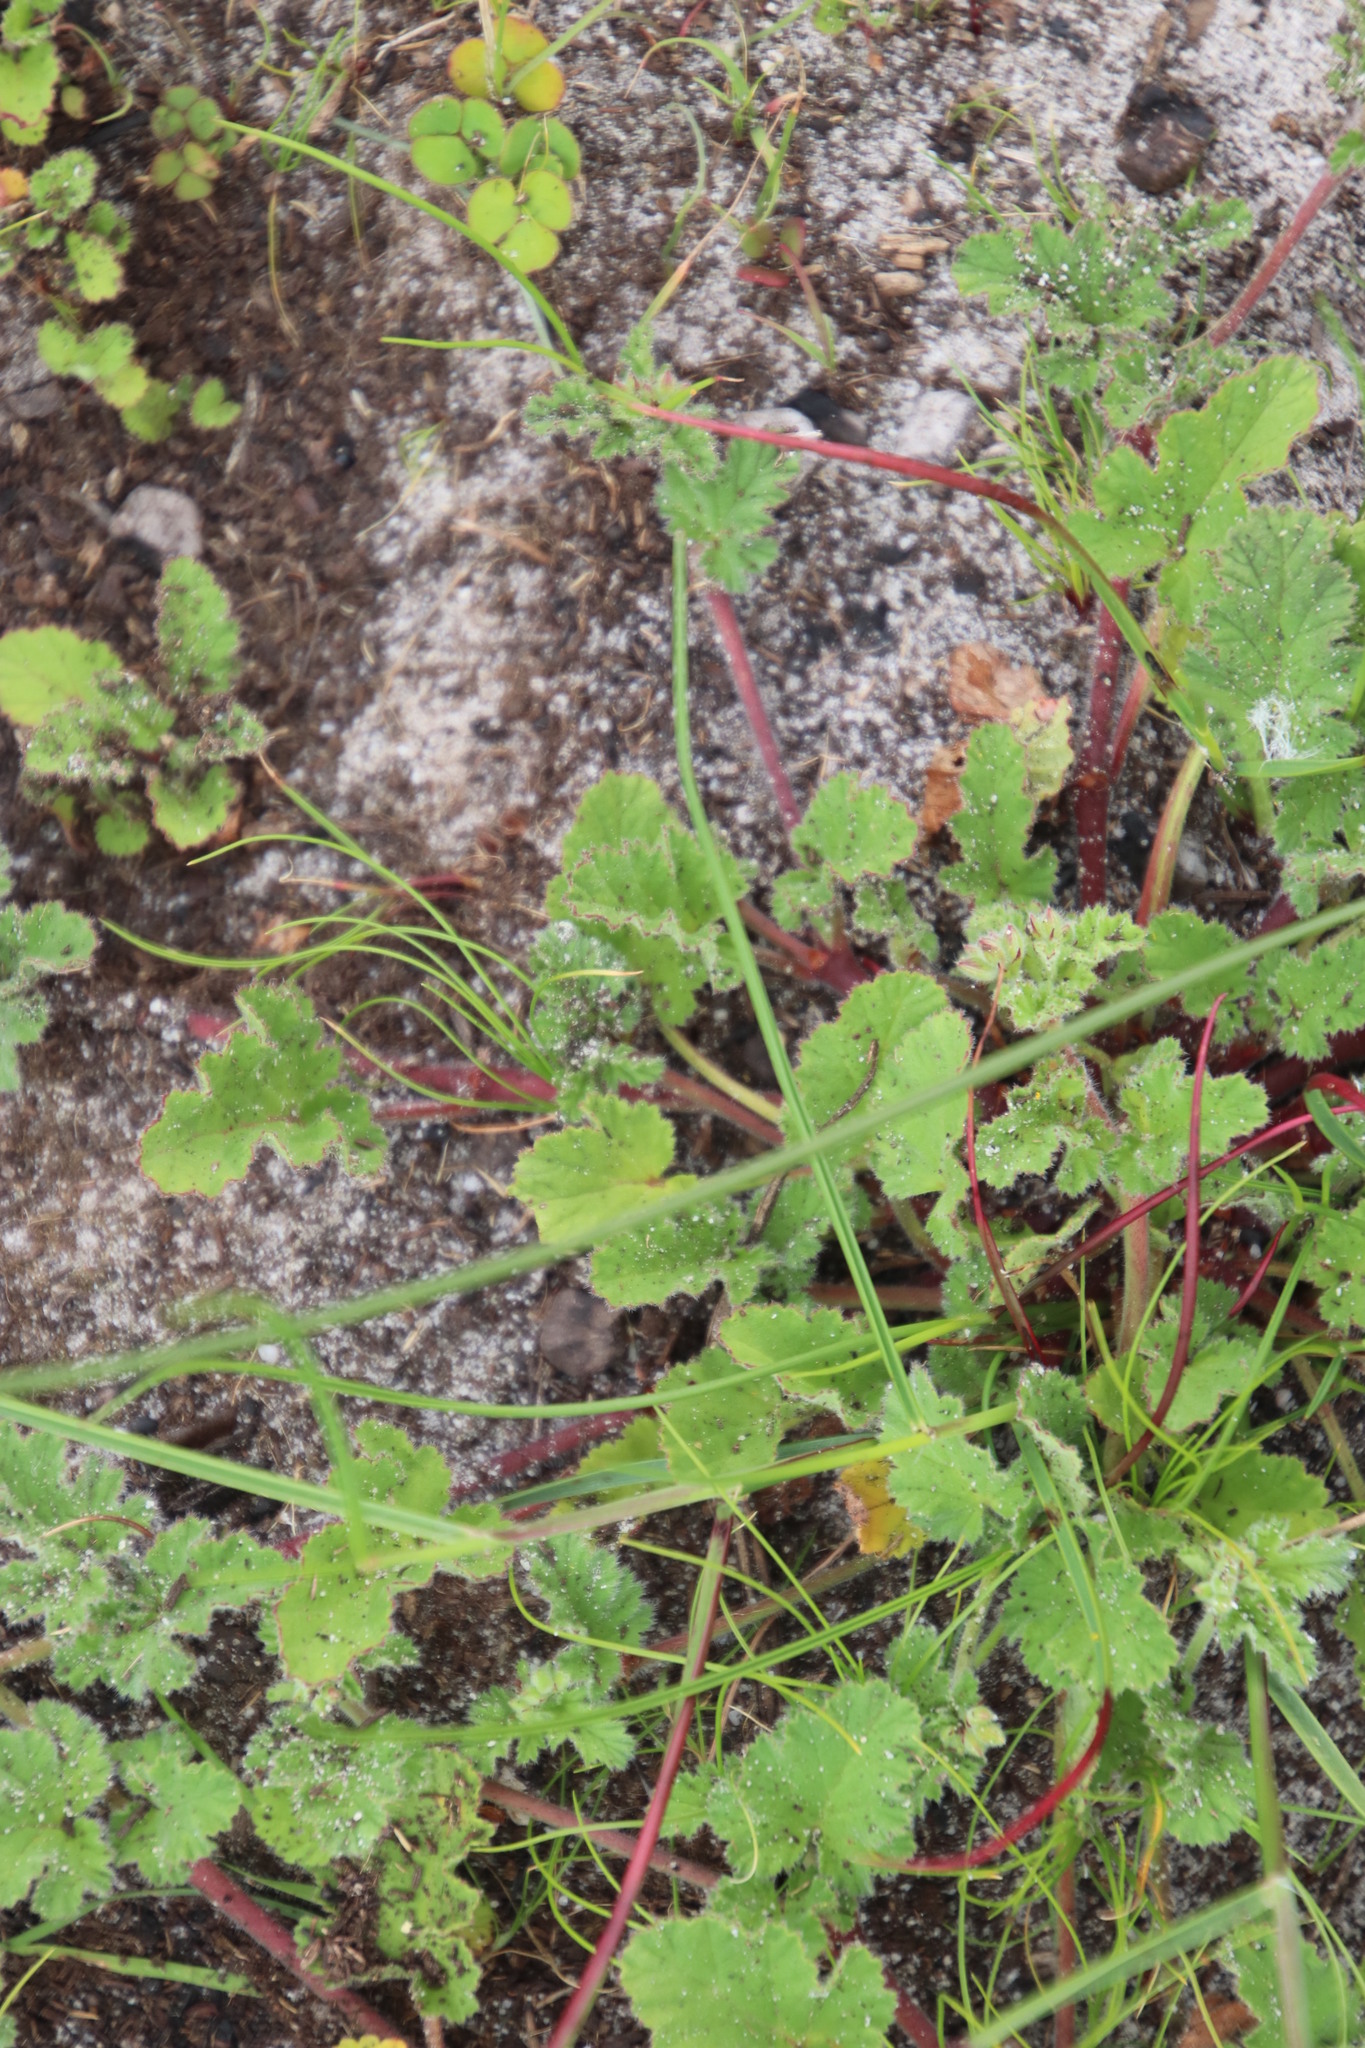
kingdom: Plantae
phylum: Tracheophyta
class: Magnoliopsida
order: Geraniales
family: Geraniaceae
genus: Pelargonium
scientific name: Pelargonium althaeoides
